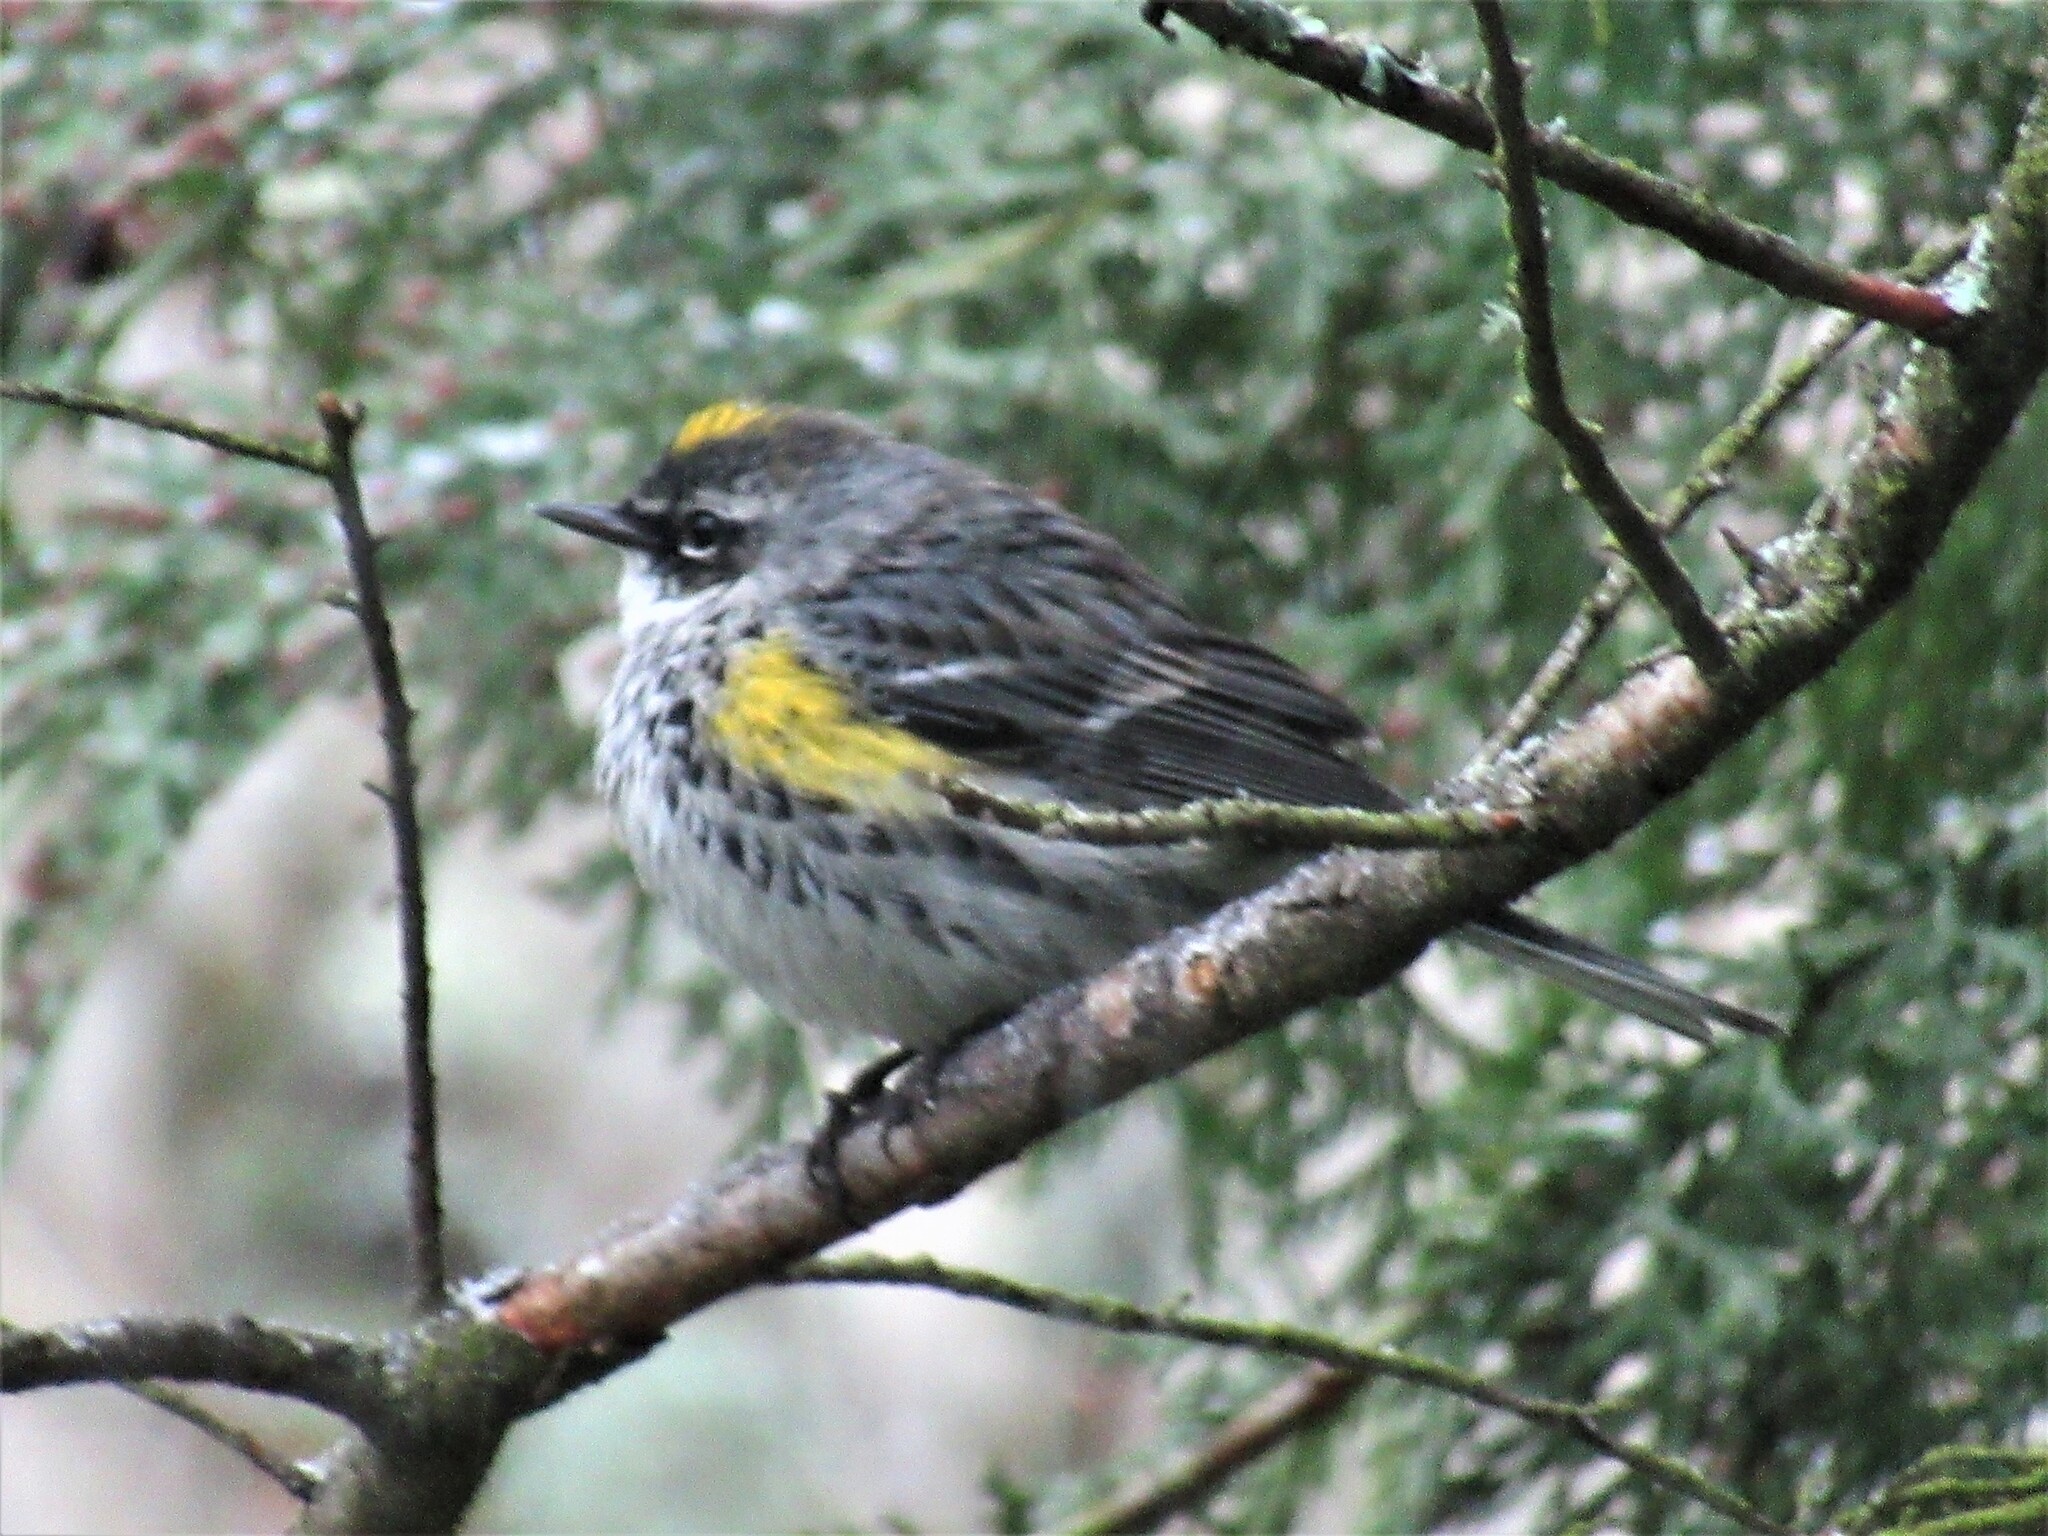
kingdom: Animalia
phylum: Chordata
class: Aves
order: Passeriformes
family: Parulidae
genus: Setophaga
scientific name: Setophaga coronata
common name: Myrtle warbler
